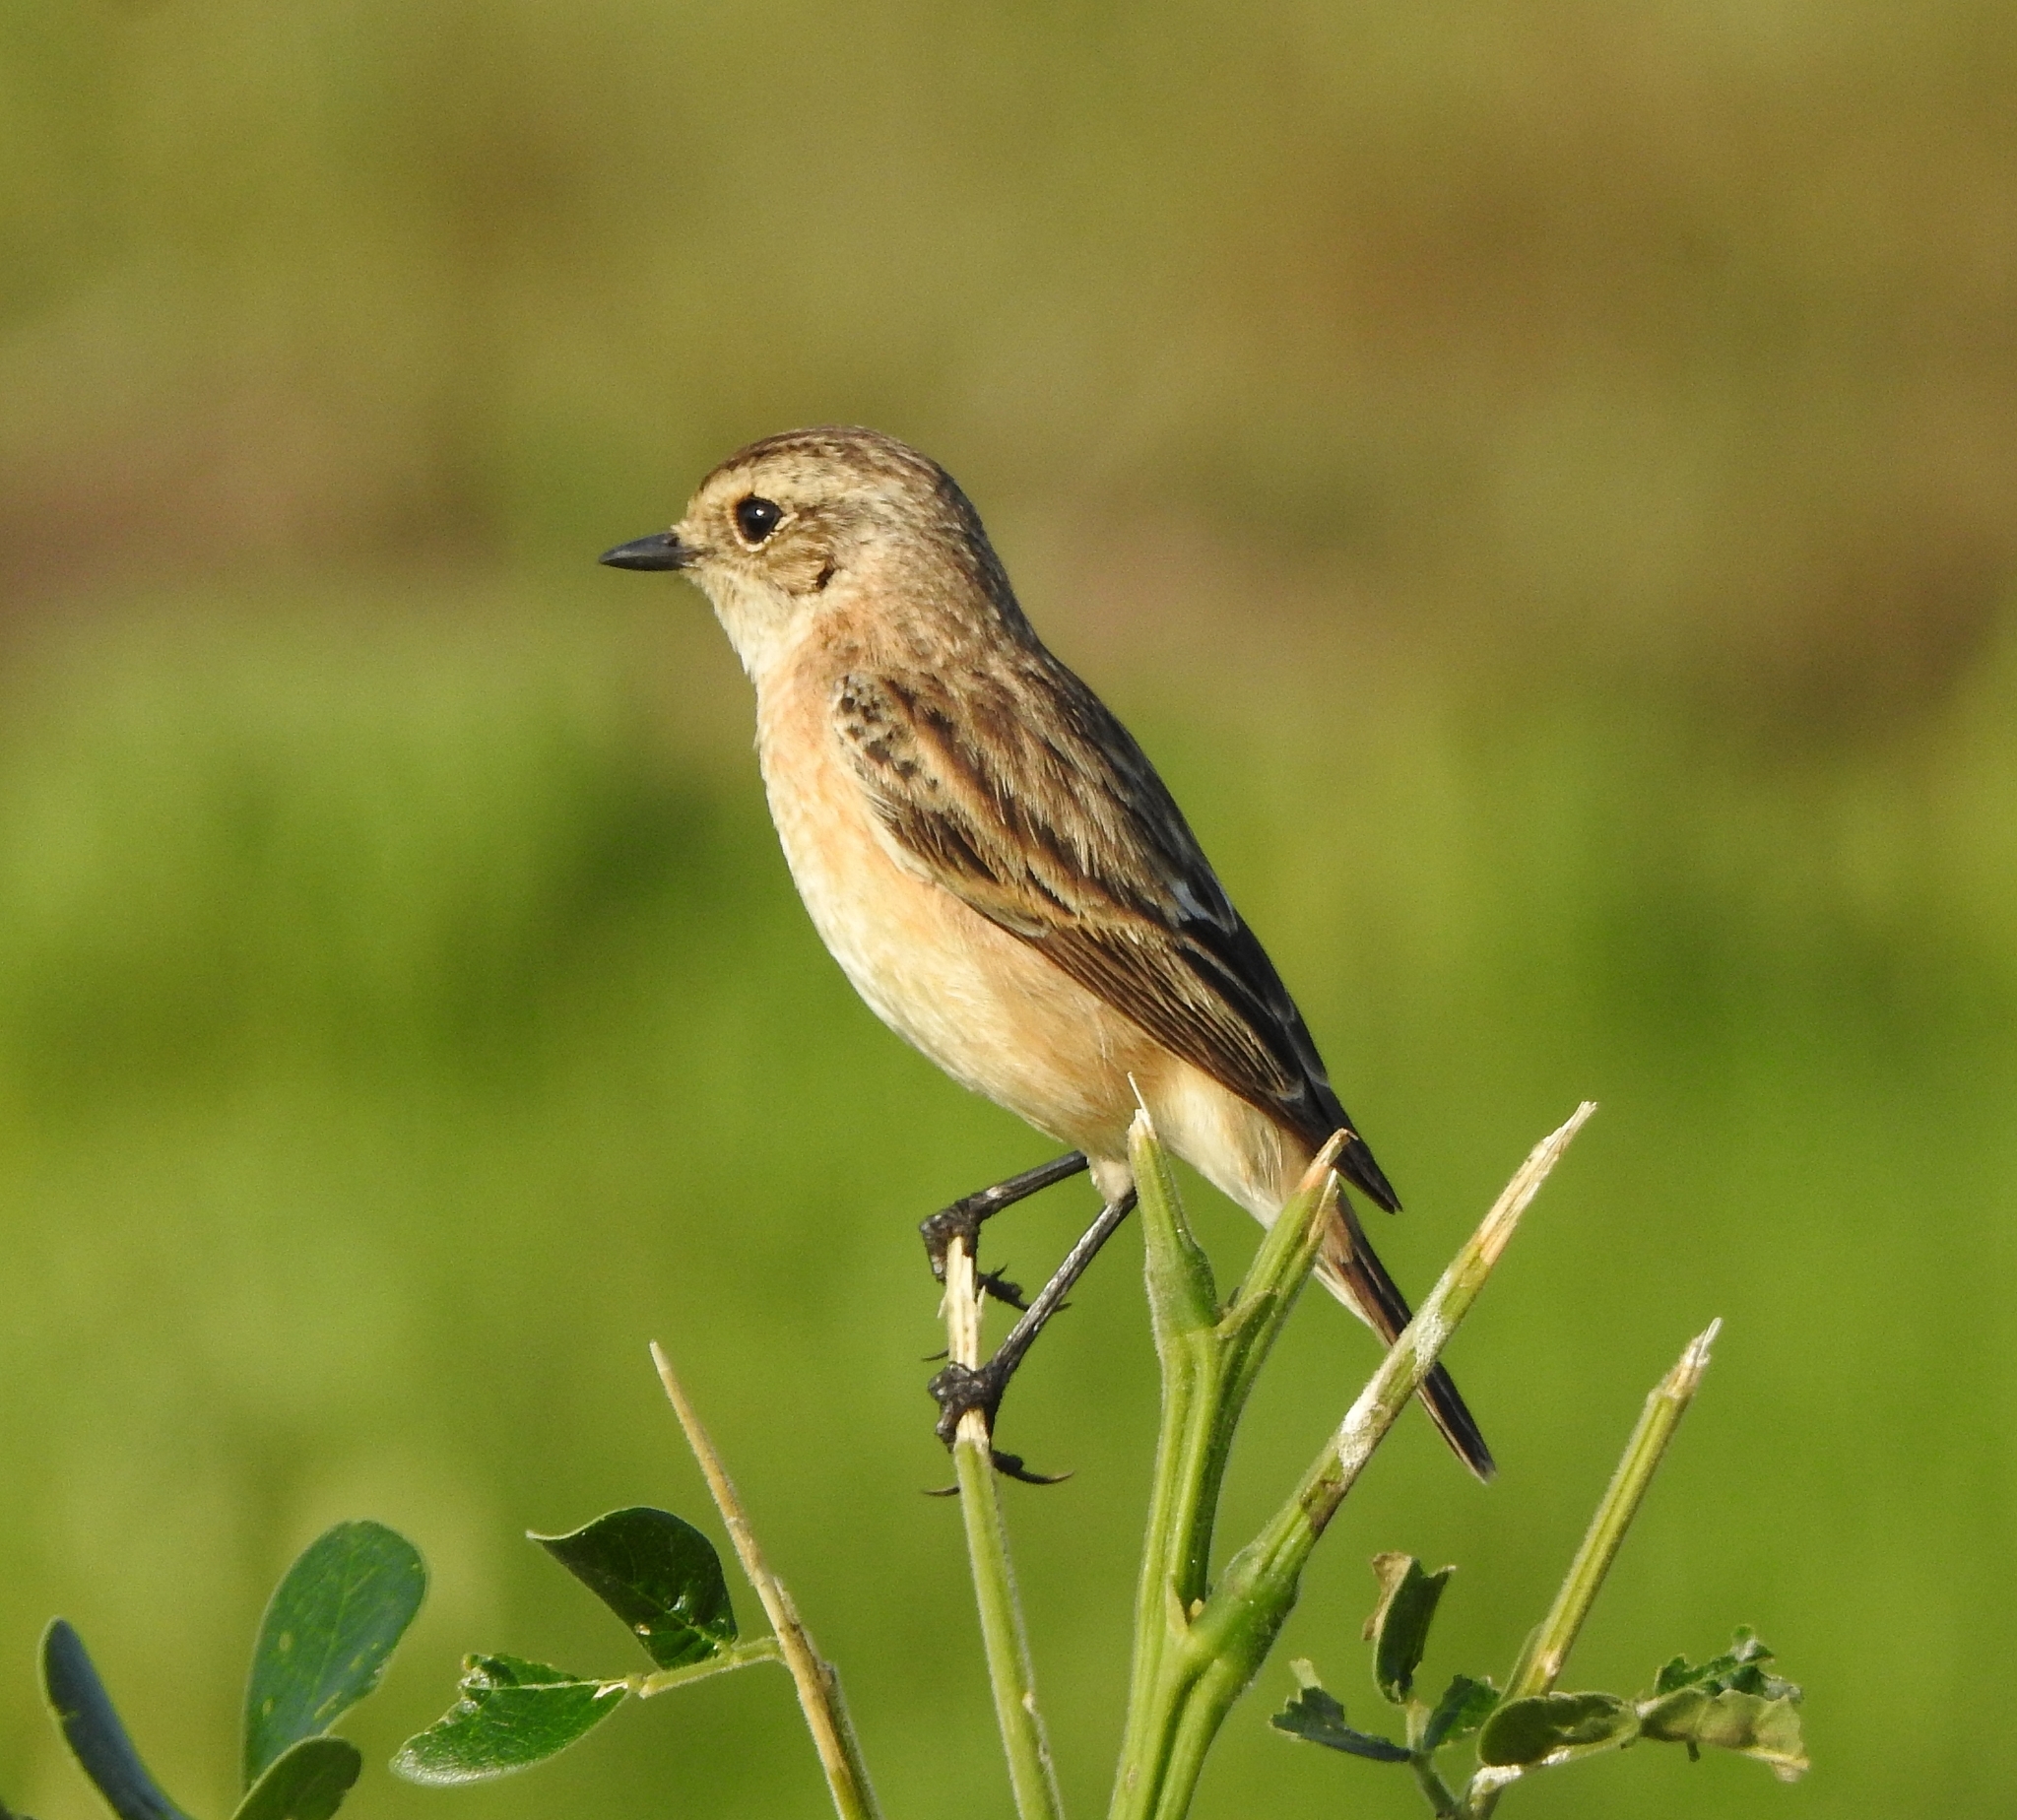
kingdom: Animalia
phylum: Chordata
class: Aves
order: Passeriformes
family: Muscicapidae
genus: Saxicola
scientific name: Saxicola maurus
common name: Siberian stonechat
